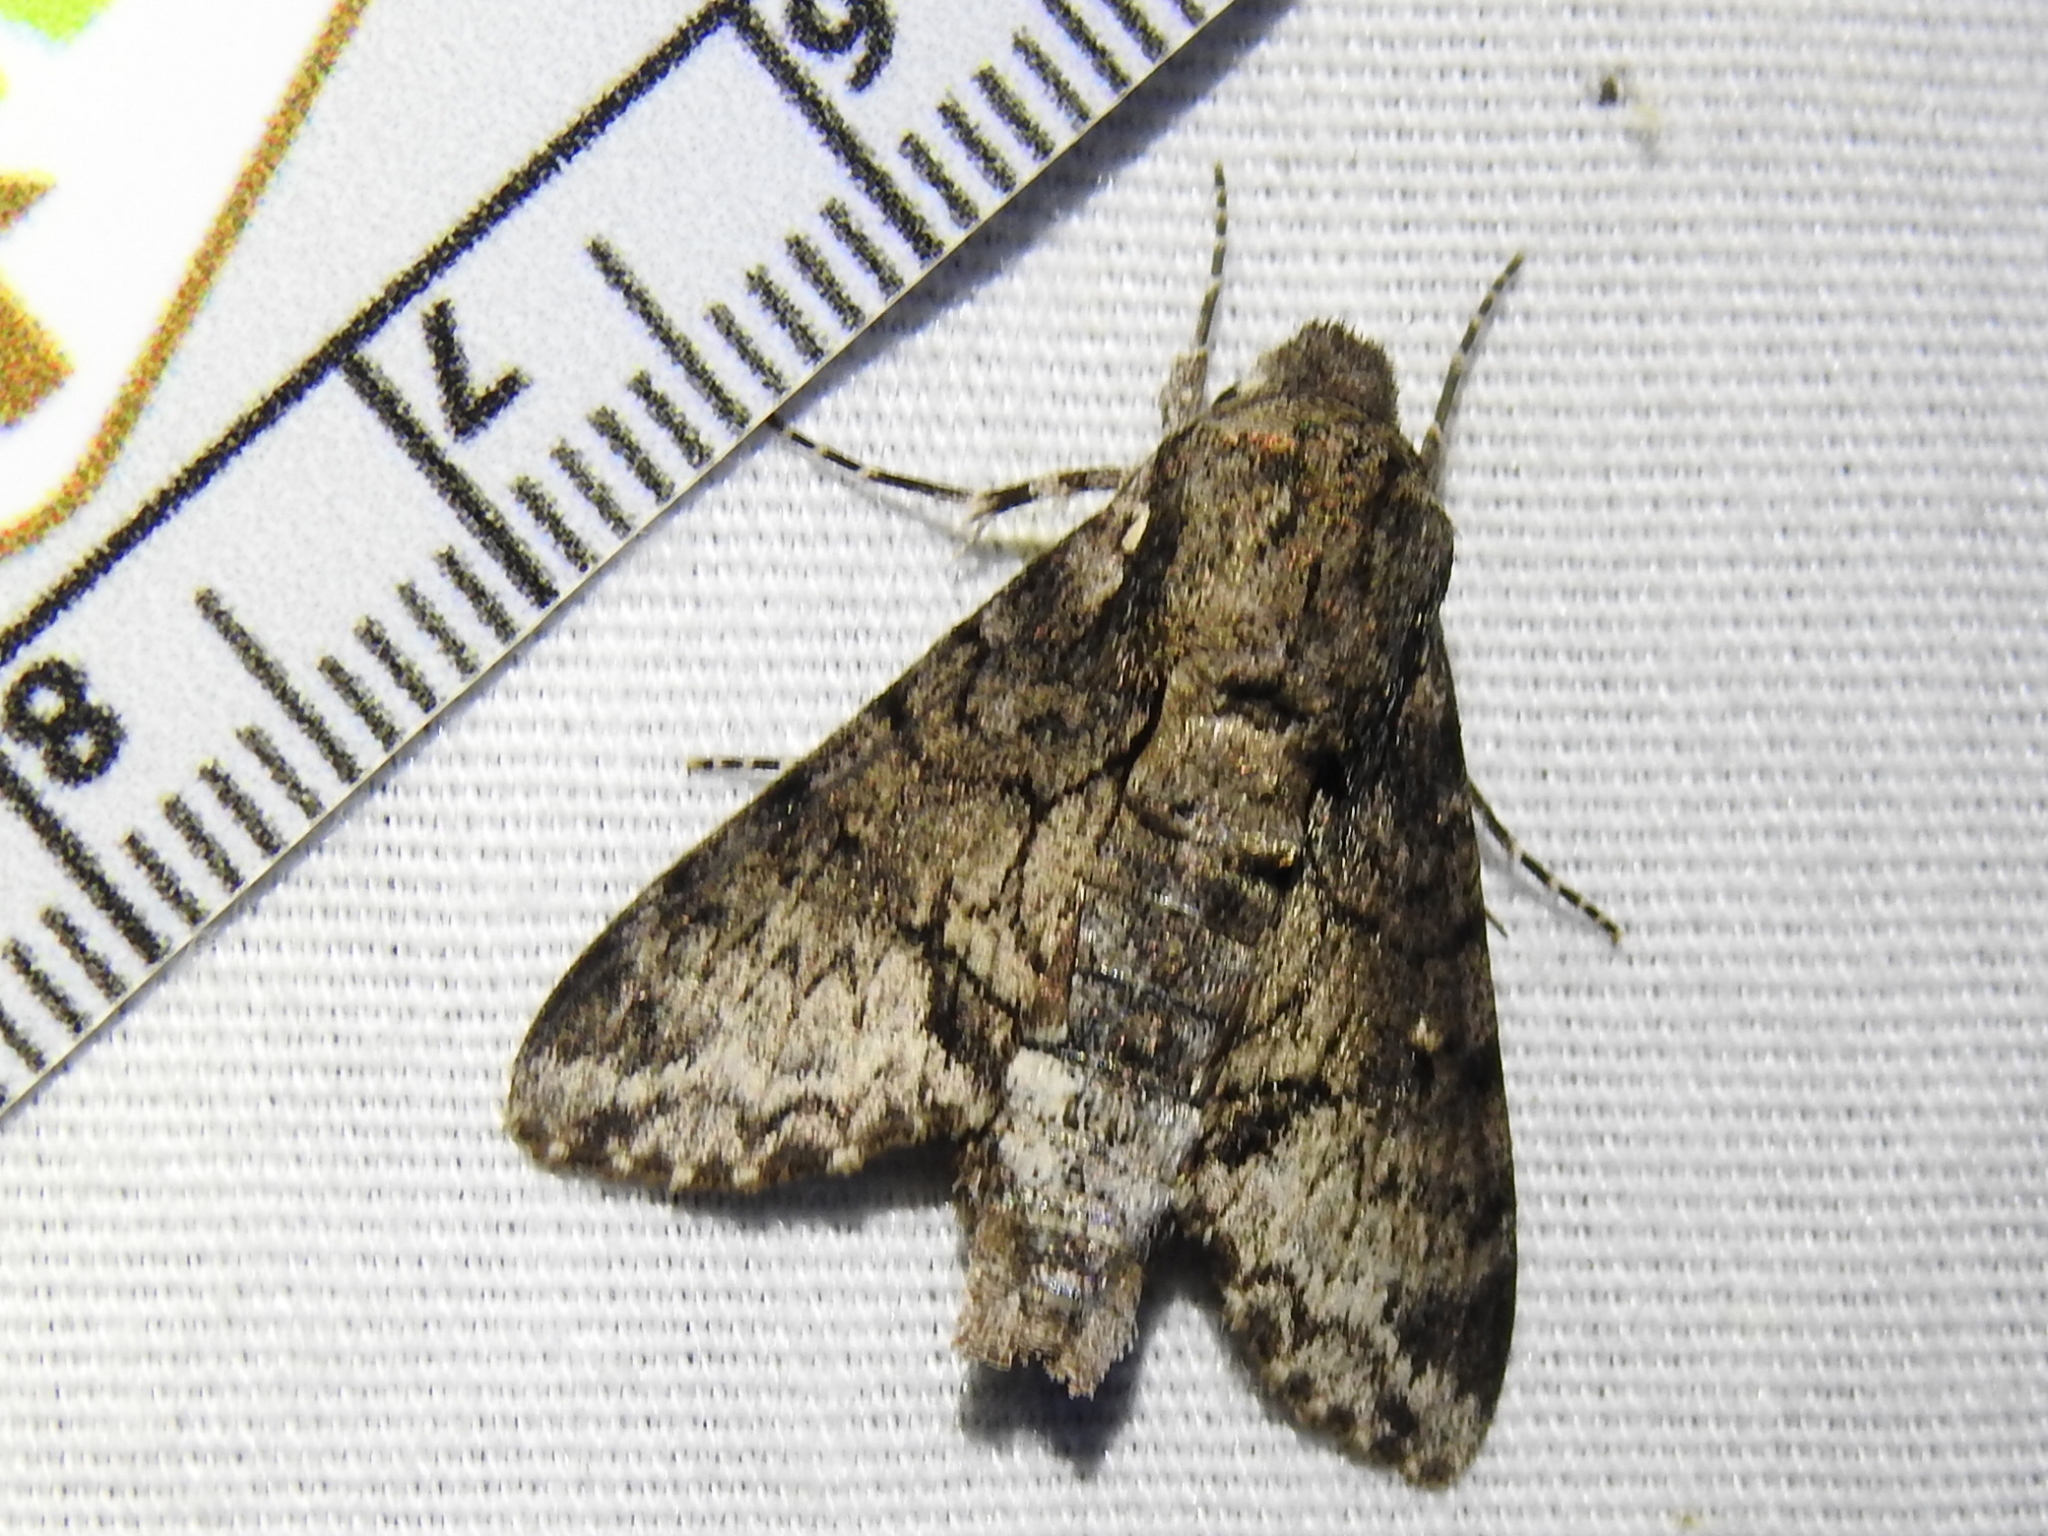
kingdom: Animalia
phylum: Arthropoda
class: Insecta
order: Lepidoptera
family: Sphingidae
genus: Cautethia
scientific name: Cautethia spuria
